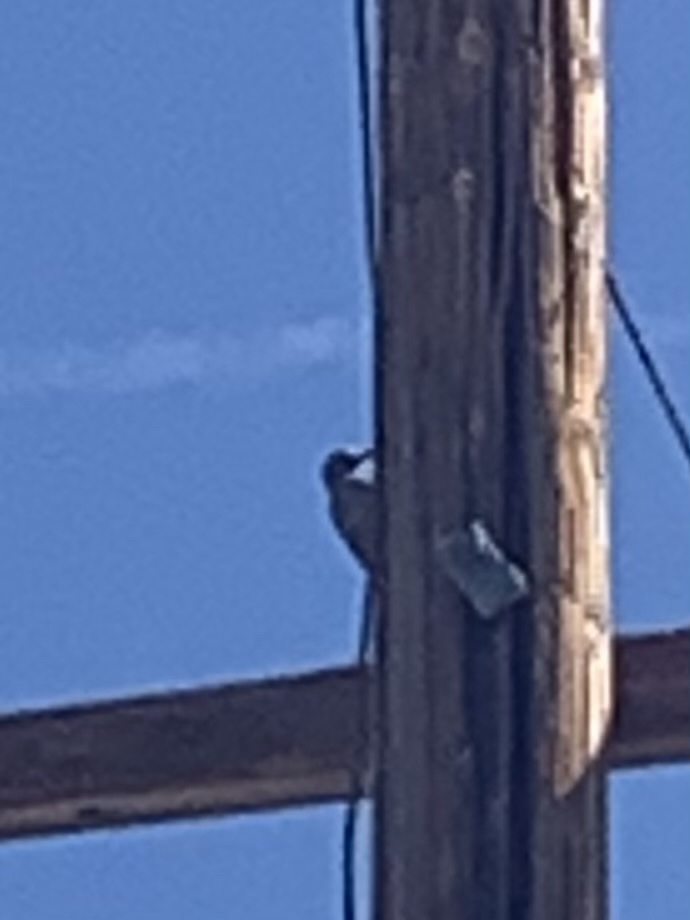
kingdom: Animalia
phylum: Chordata
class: Aves
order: Piciformes
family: Picidae
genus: Melanerpes
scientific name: Melanerpes uropygialis
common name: Gila woodpecker
